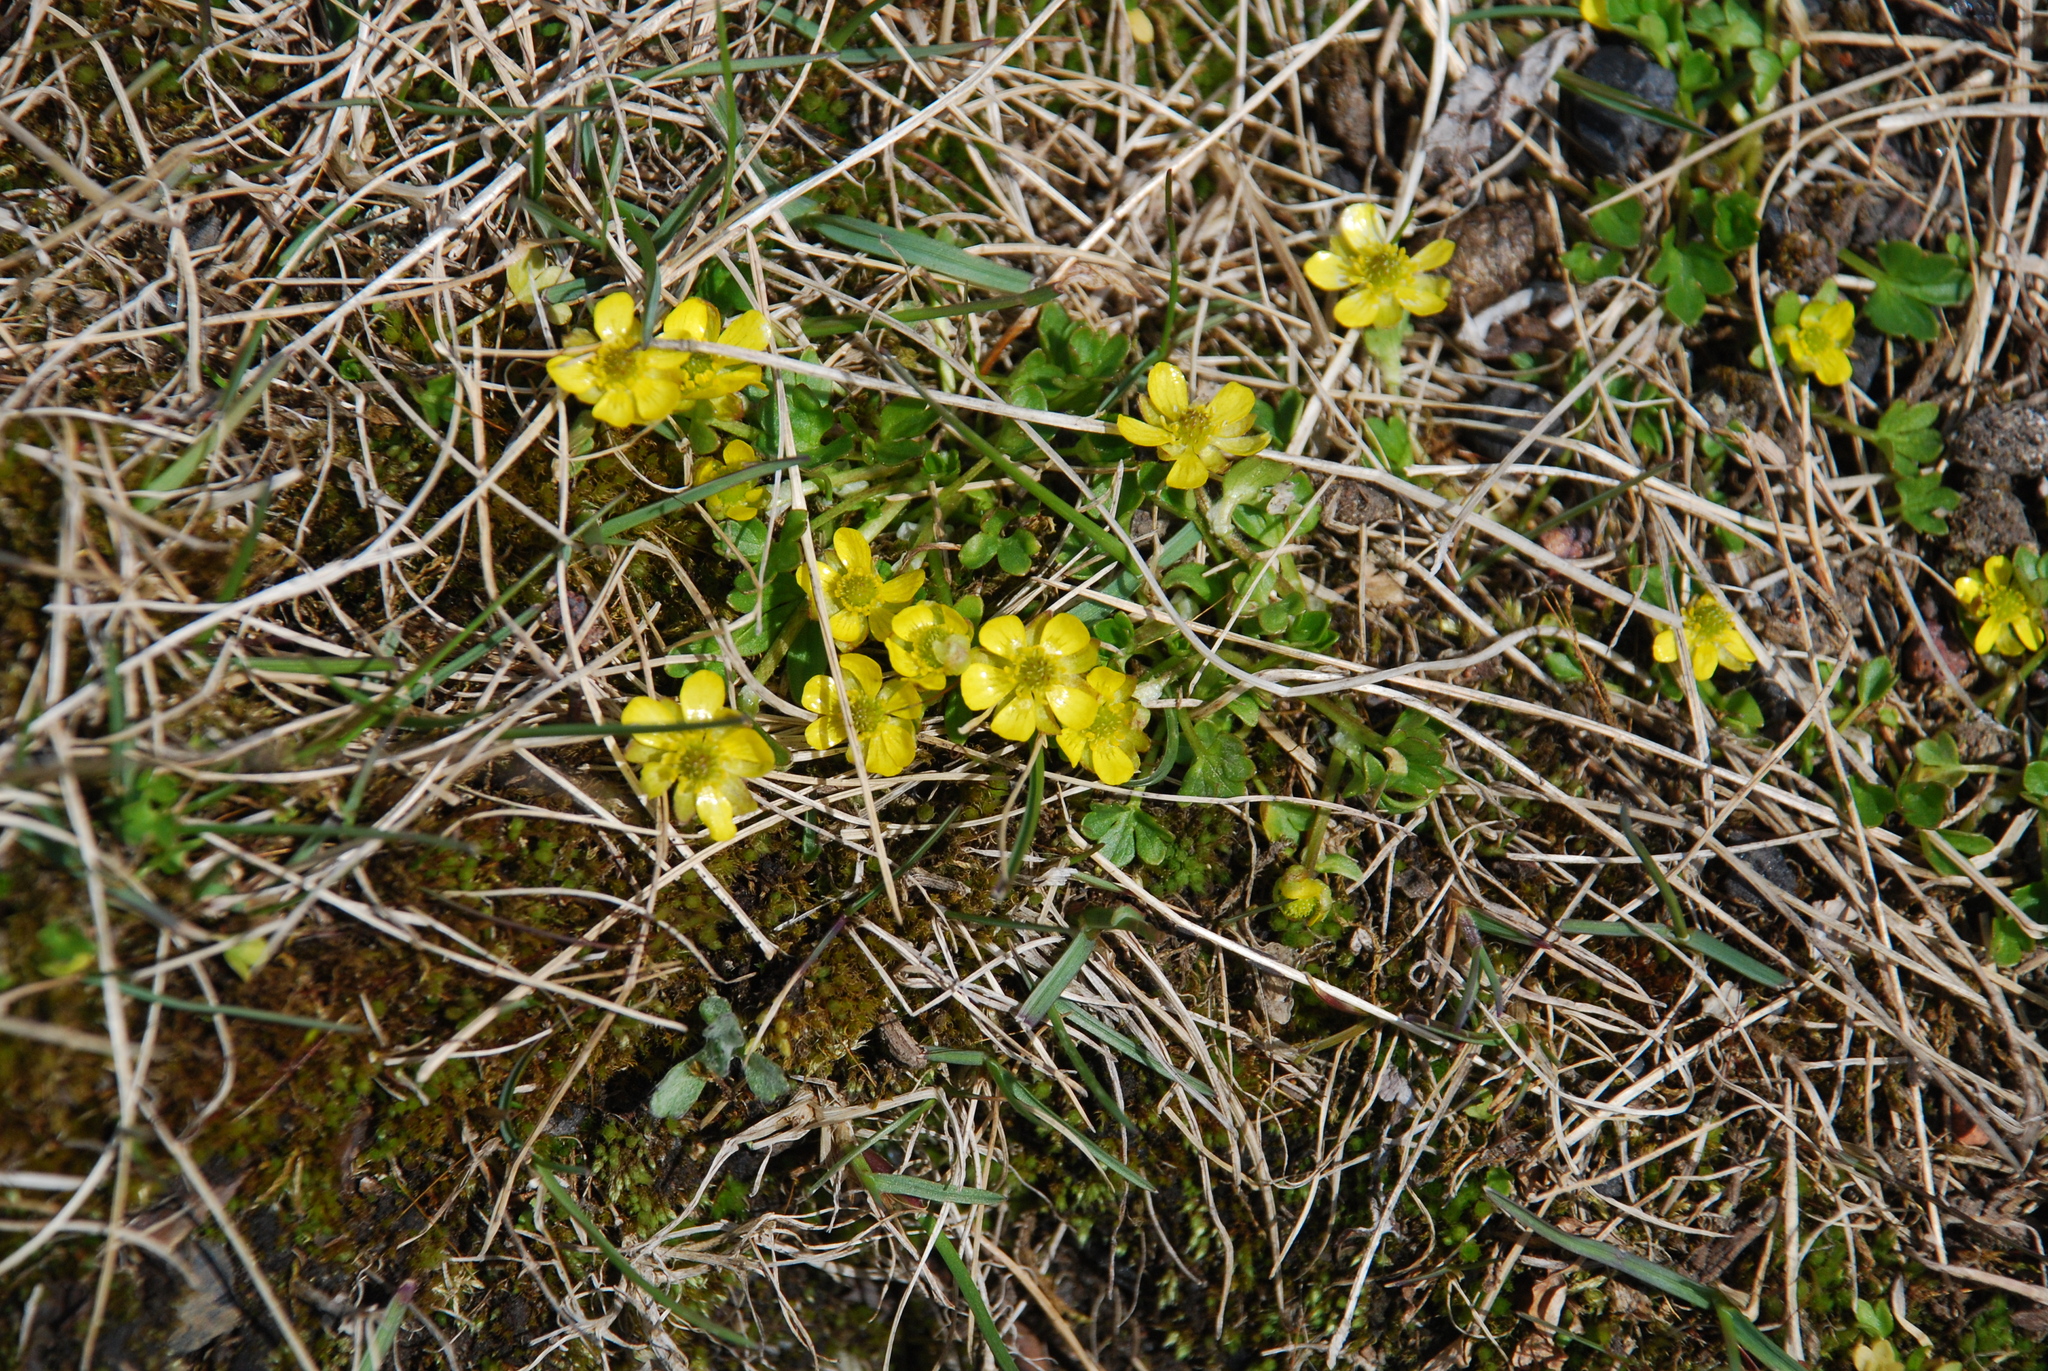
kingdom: Plantae
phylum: Tracheophyta
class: Magnoliopsida
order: Ranunculales
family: Ranunculaceae
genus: Ranunculus
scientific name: Ranunculus pygmaeus
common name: Dwarf buttercup
